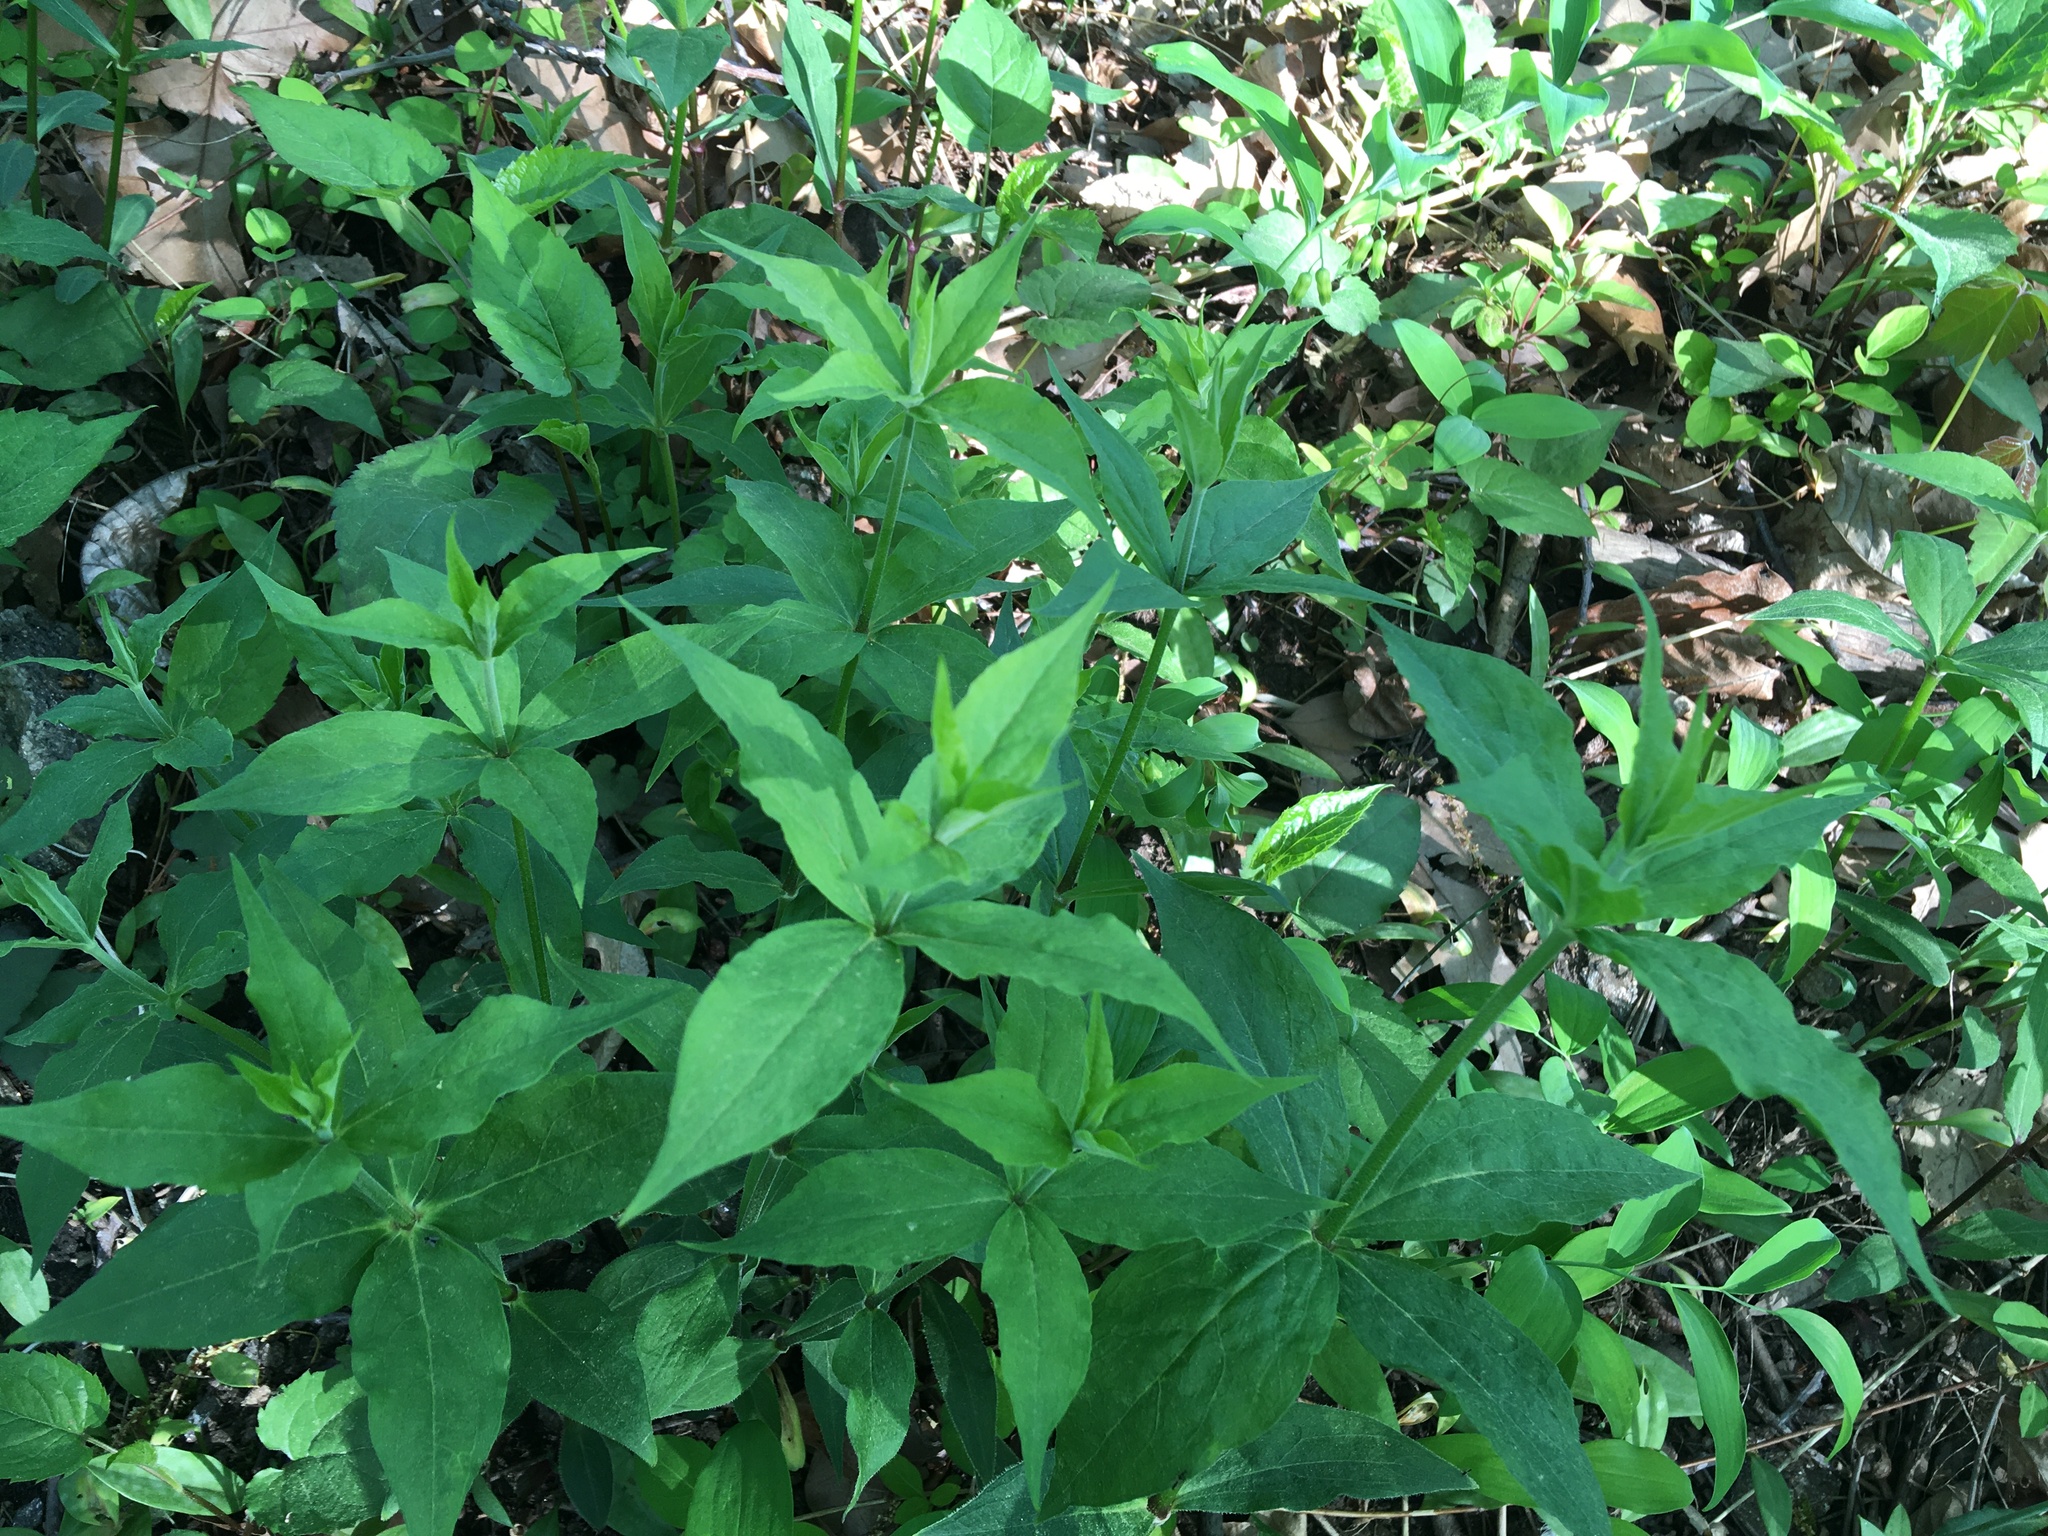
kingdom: Plantae
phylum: Tracheophyta
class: Magnoliopsida
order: Caryophyllales
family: Caryophyllaceae
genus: Silene
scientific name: Silene stellata
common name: Starry campion
